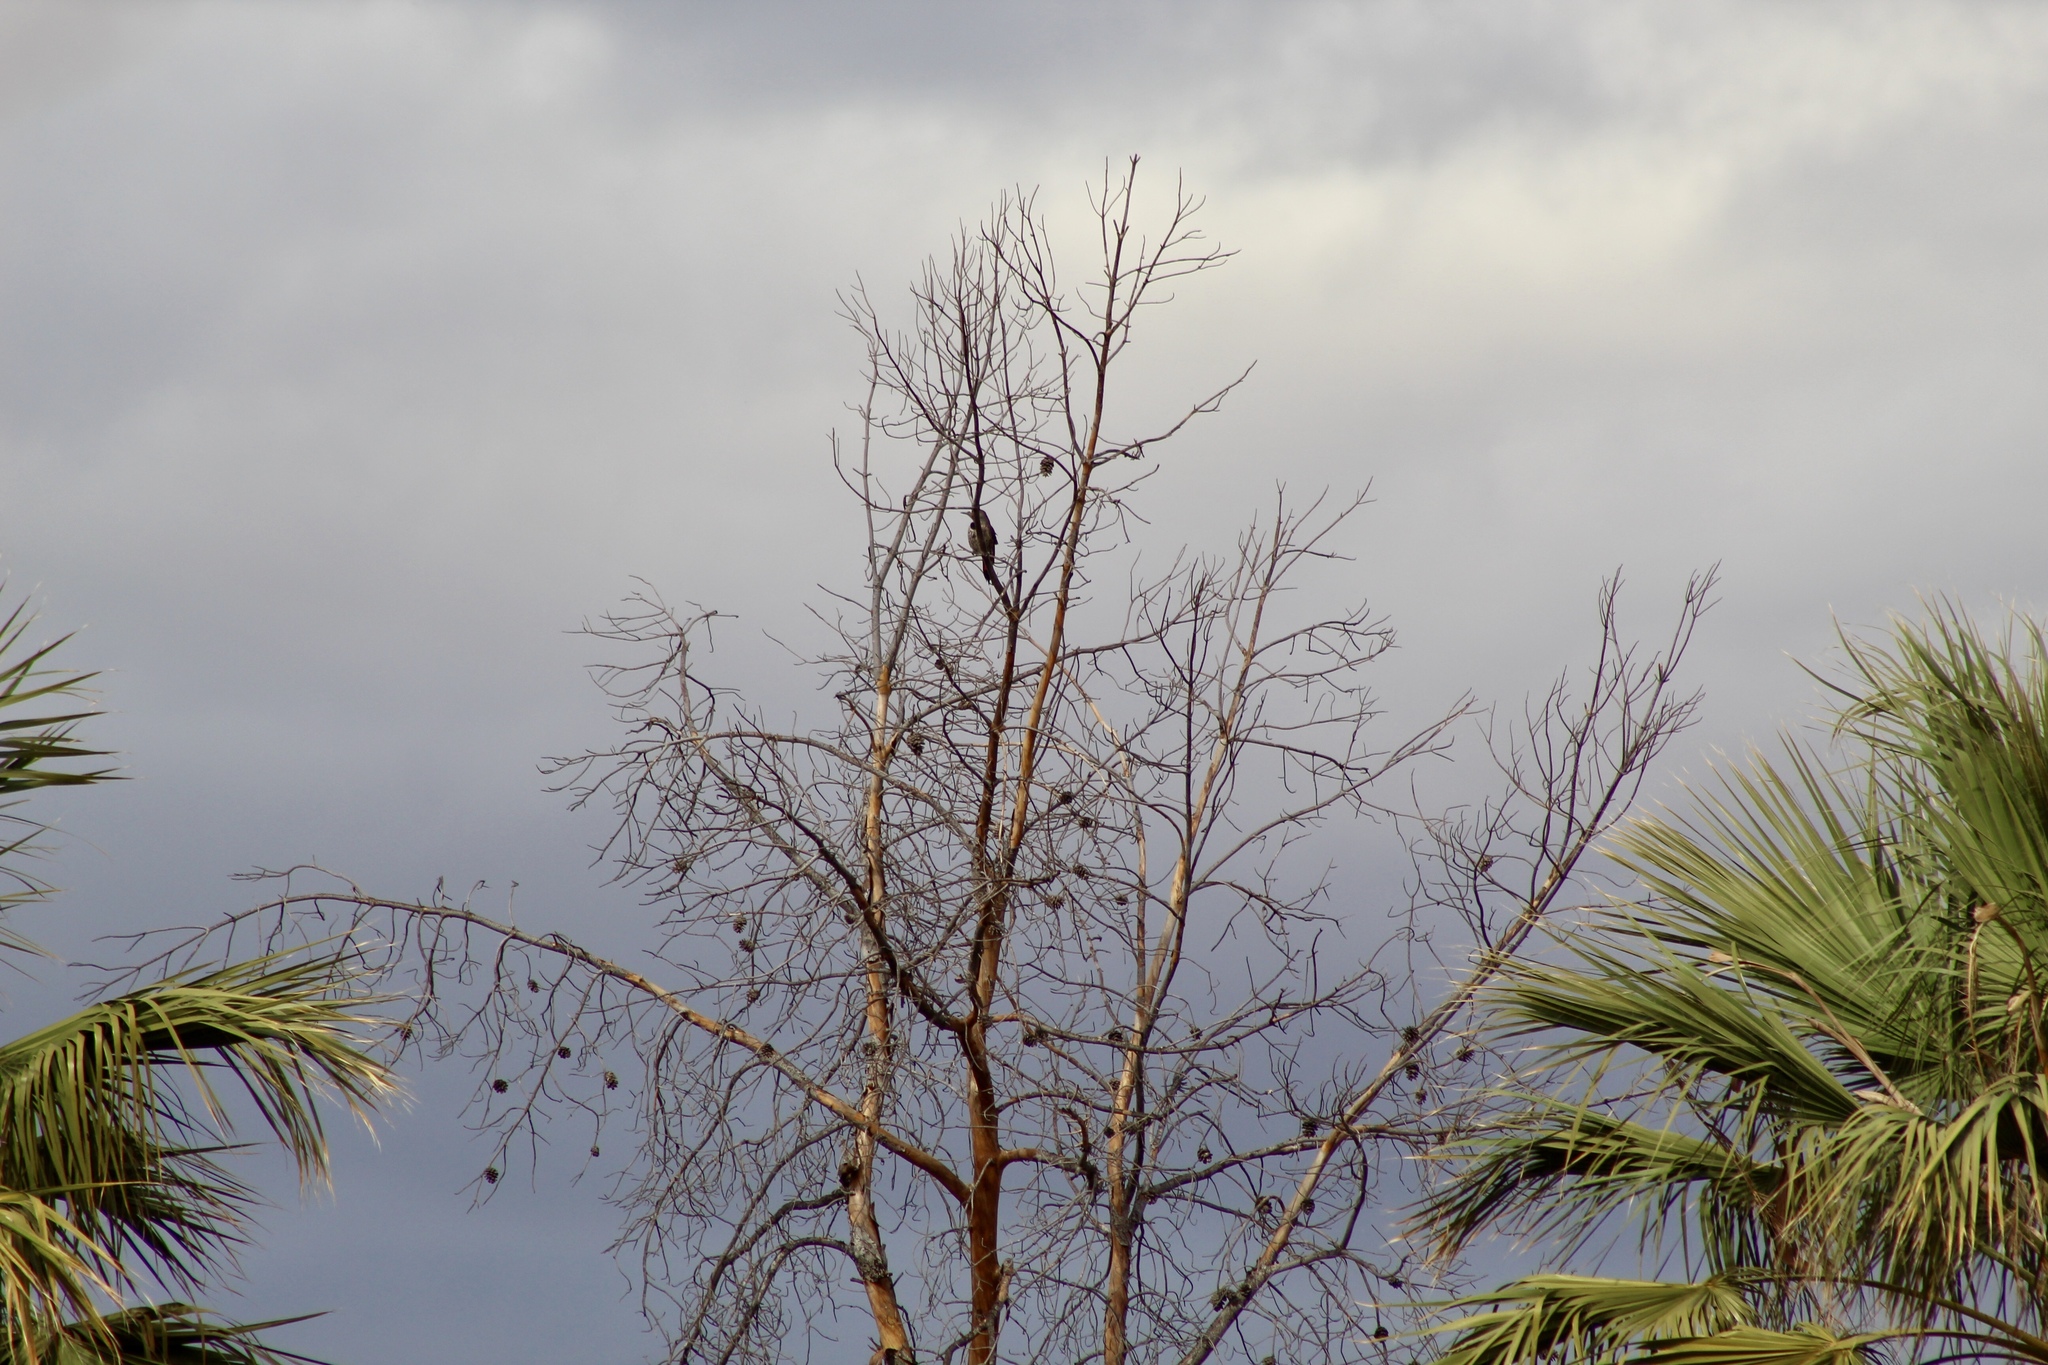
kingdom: Animalia
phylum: Chordata
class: Aves
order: Piciformes
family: Picidae
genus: Colaptes
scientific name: Colaptes auratus
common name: Northern flicker
